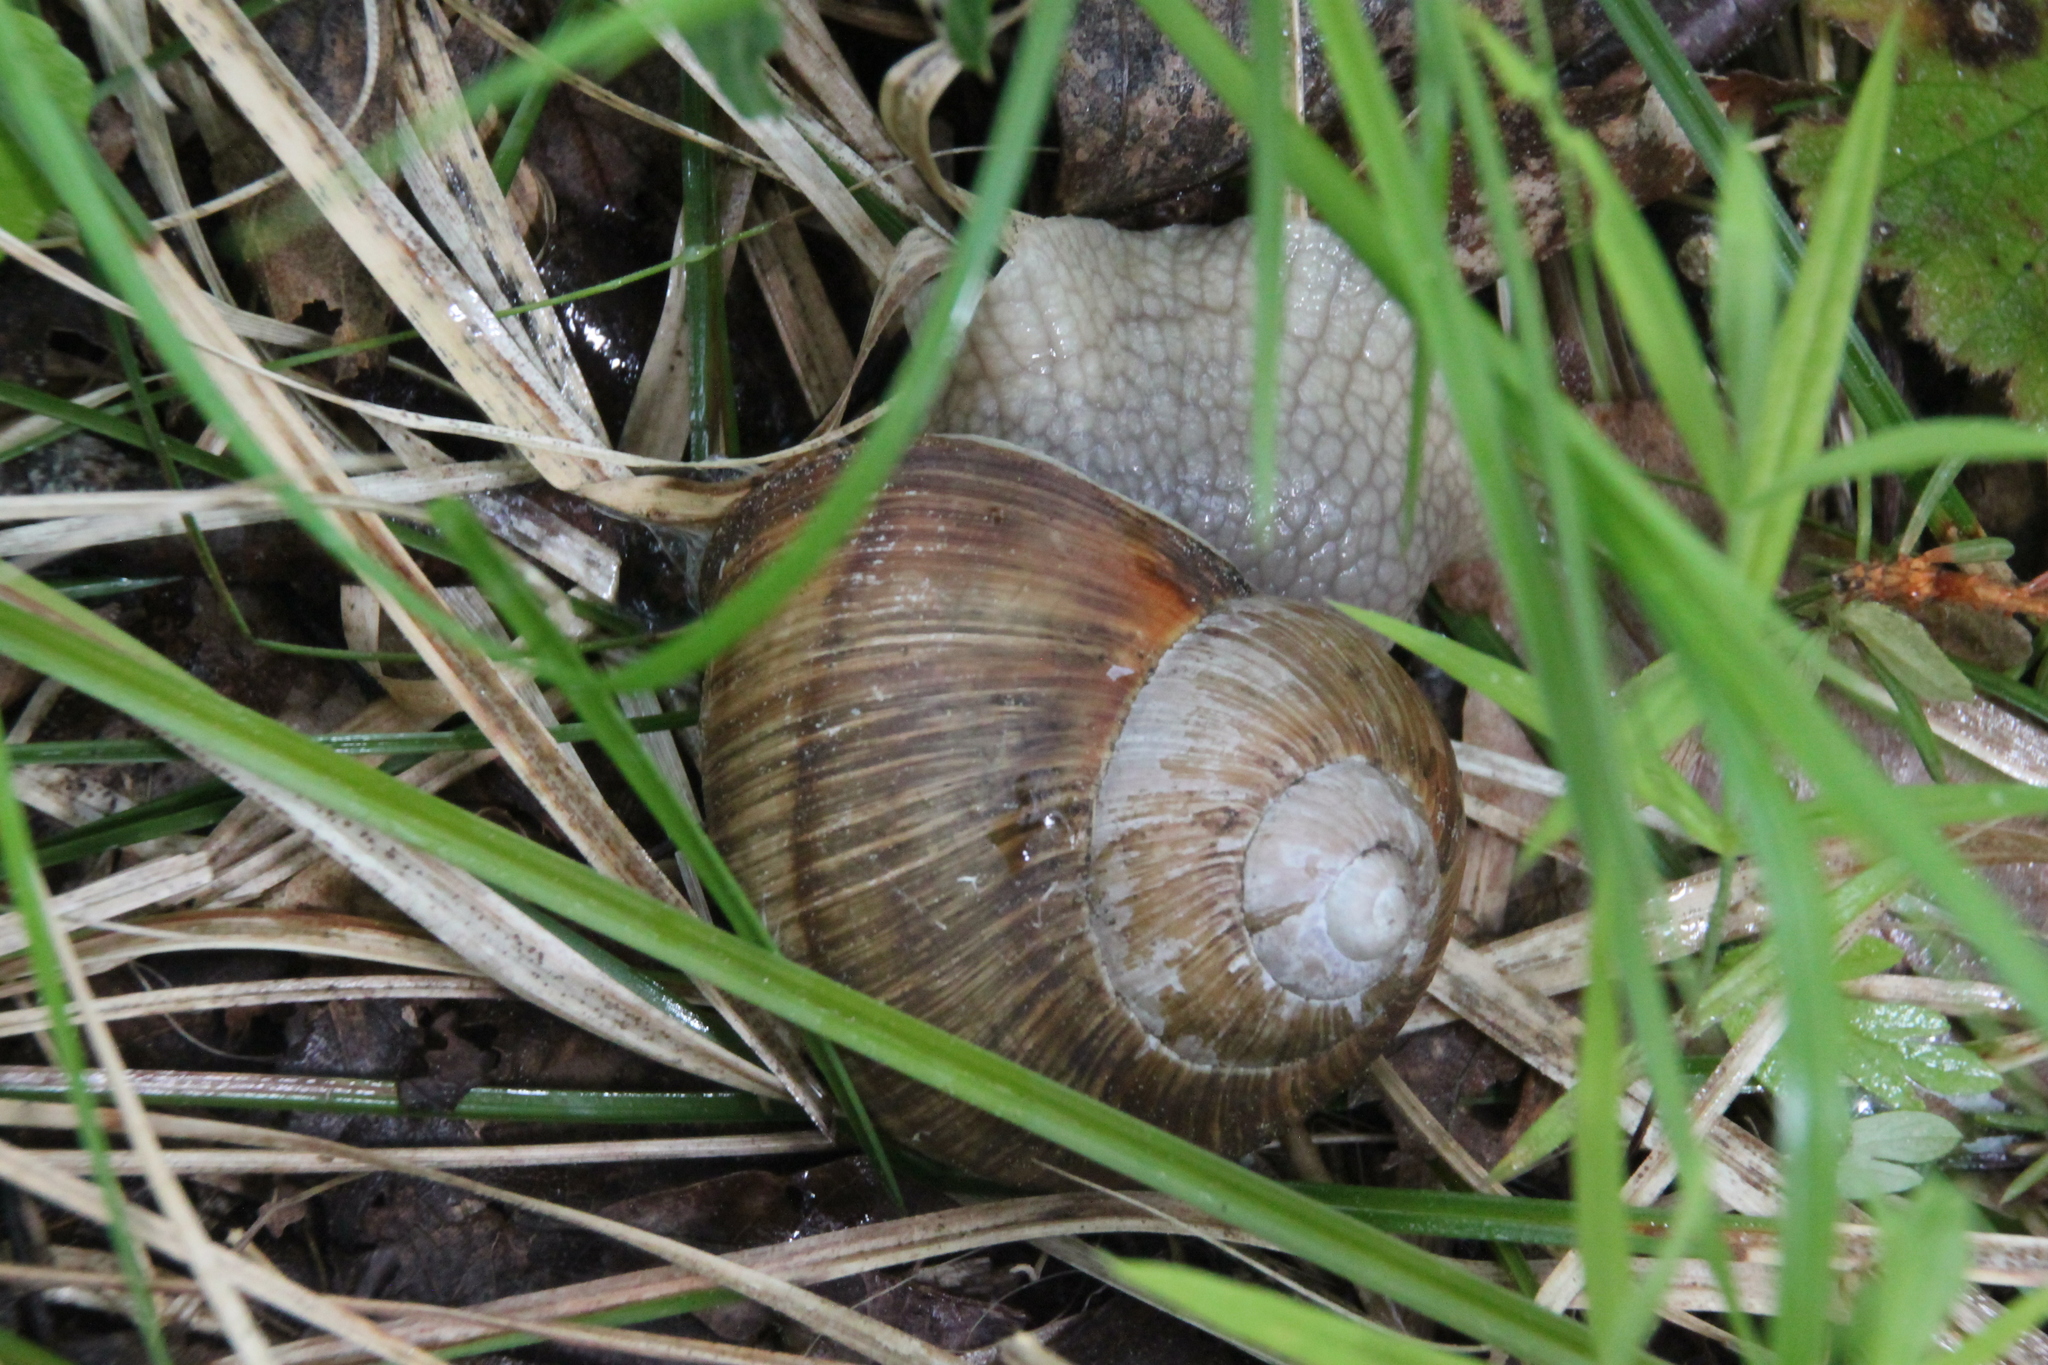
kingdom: Animalia
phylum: Mollusca
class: Gastropoda
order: Stylommatophora
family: Helicidae
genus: Helix
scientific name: Helix pomatia
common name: Roman snail
